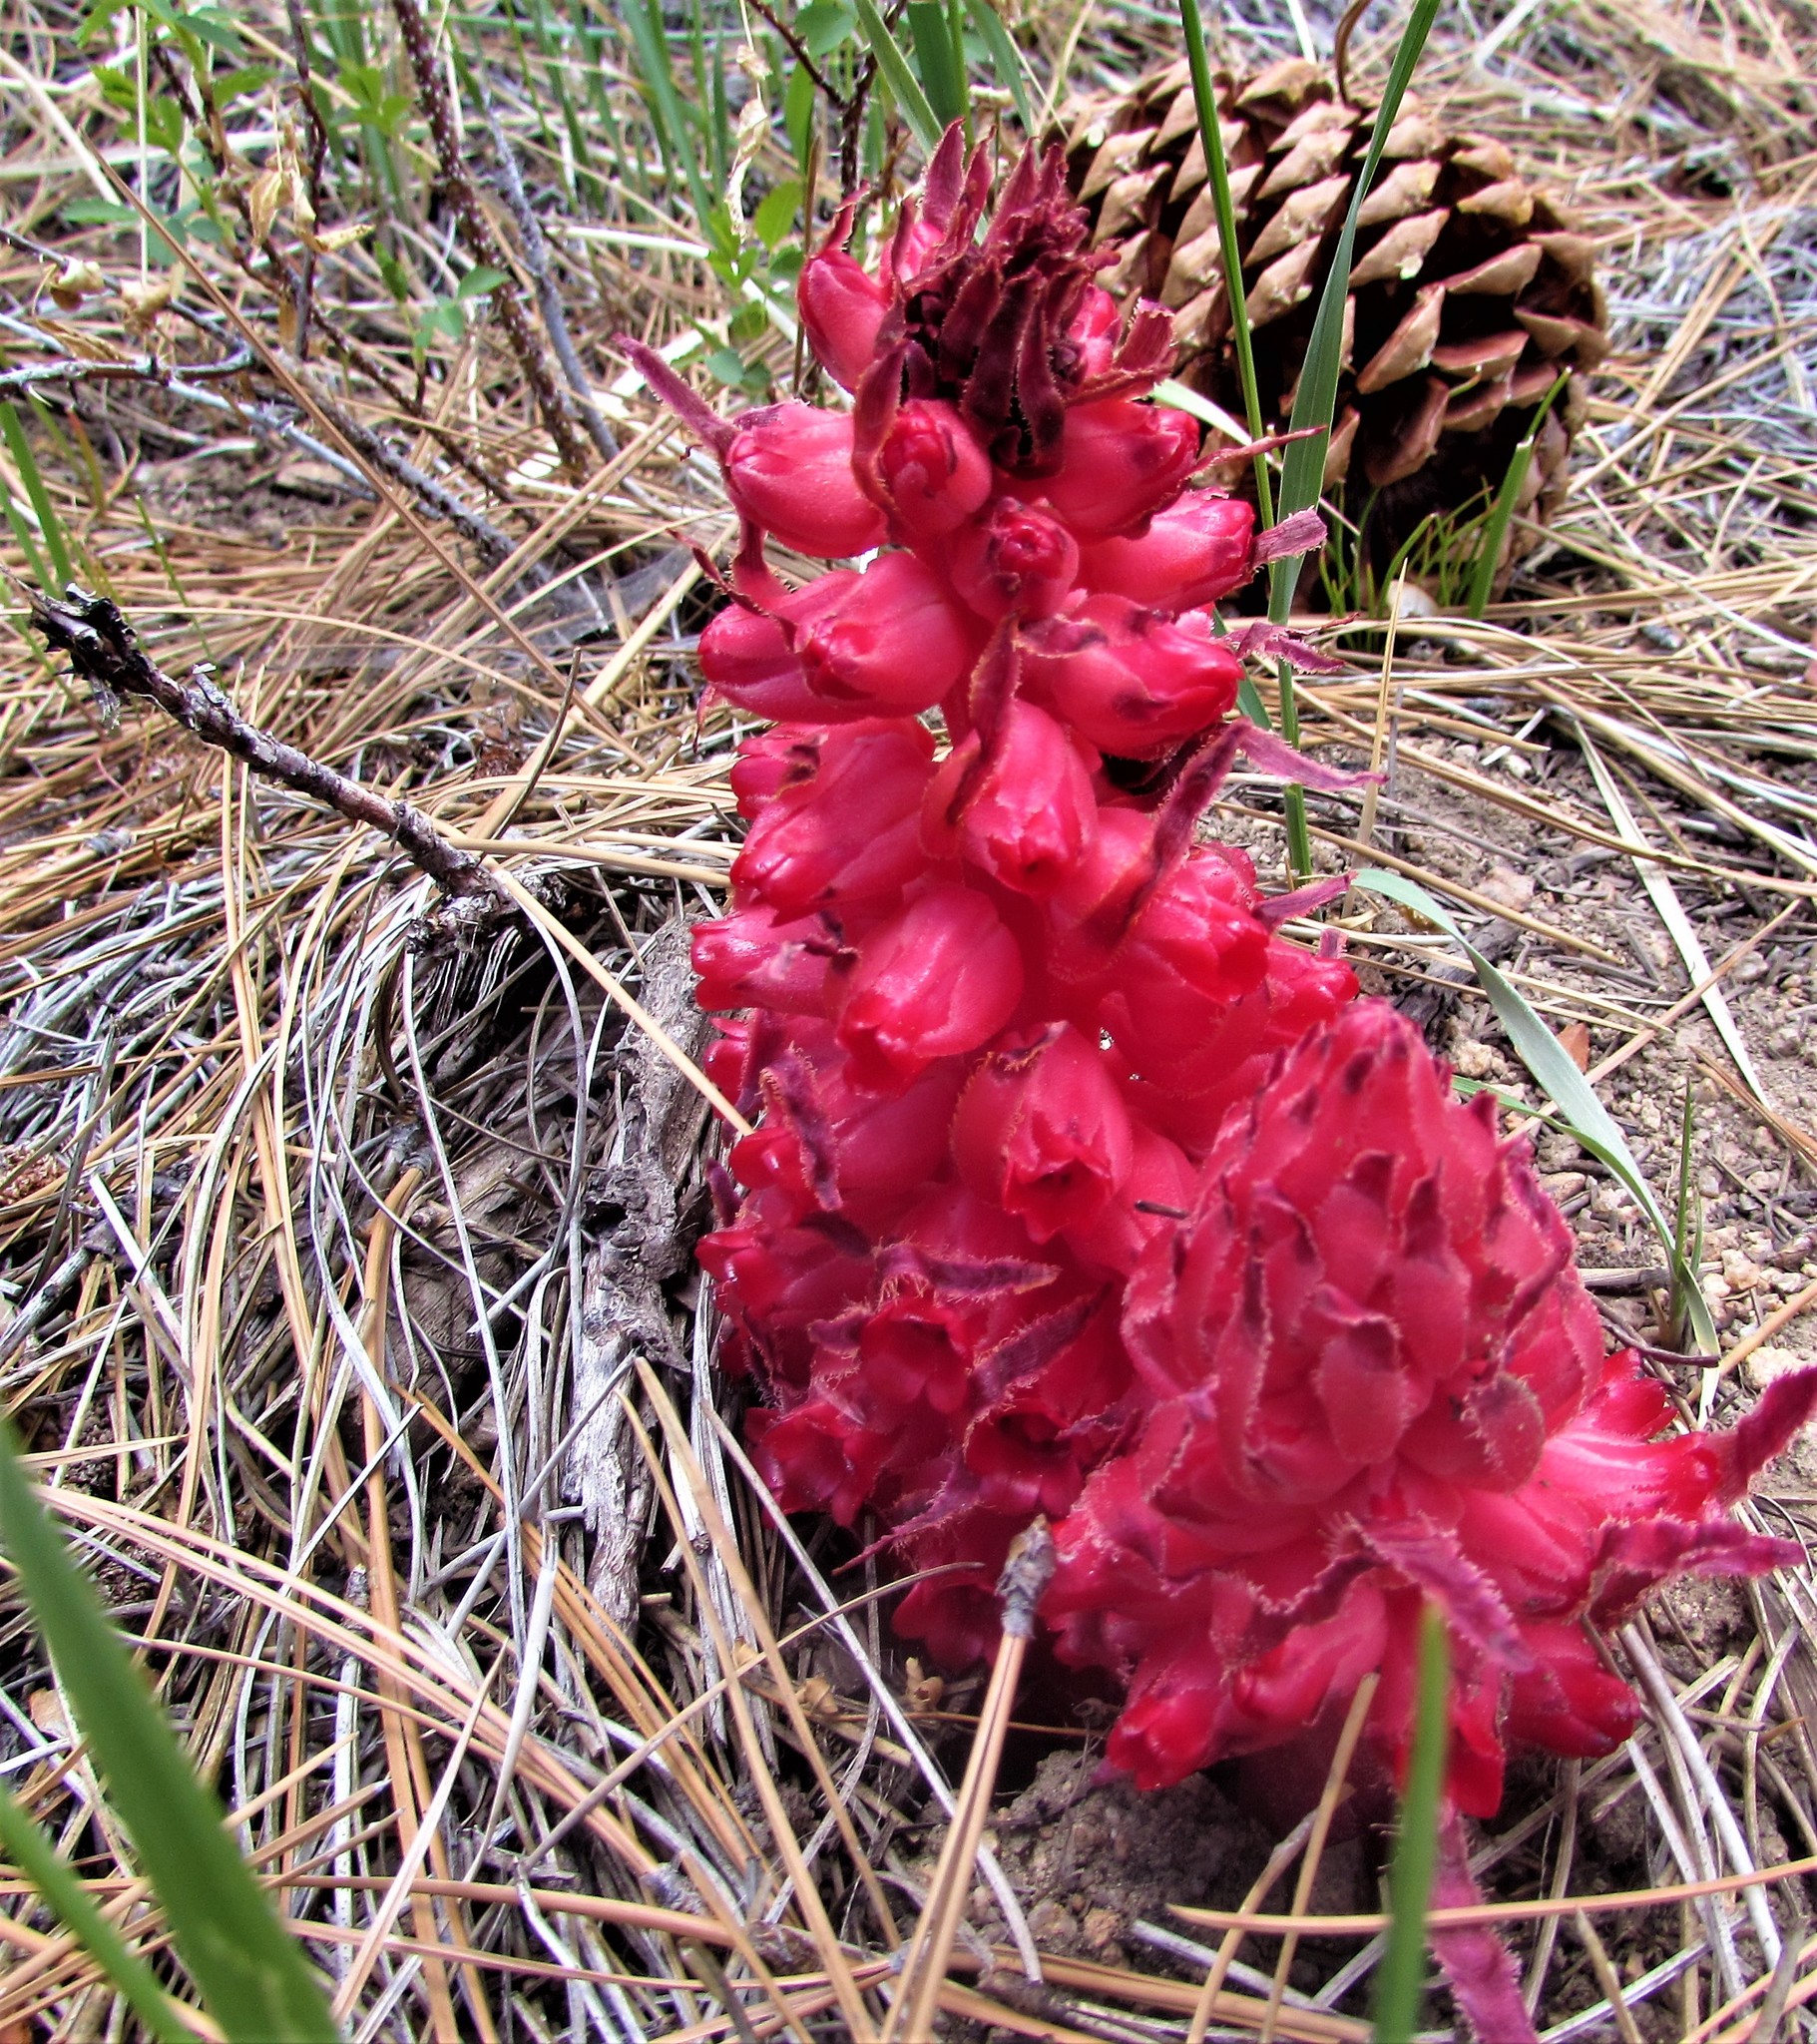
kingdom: Plantae
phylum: Tracheophyta
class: Magnoliopsida
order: Ericales
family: Ericaceae
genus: Sarcodes
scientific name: Sarcodes sanguinea
